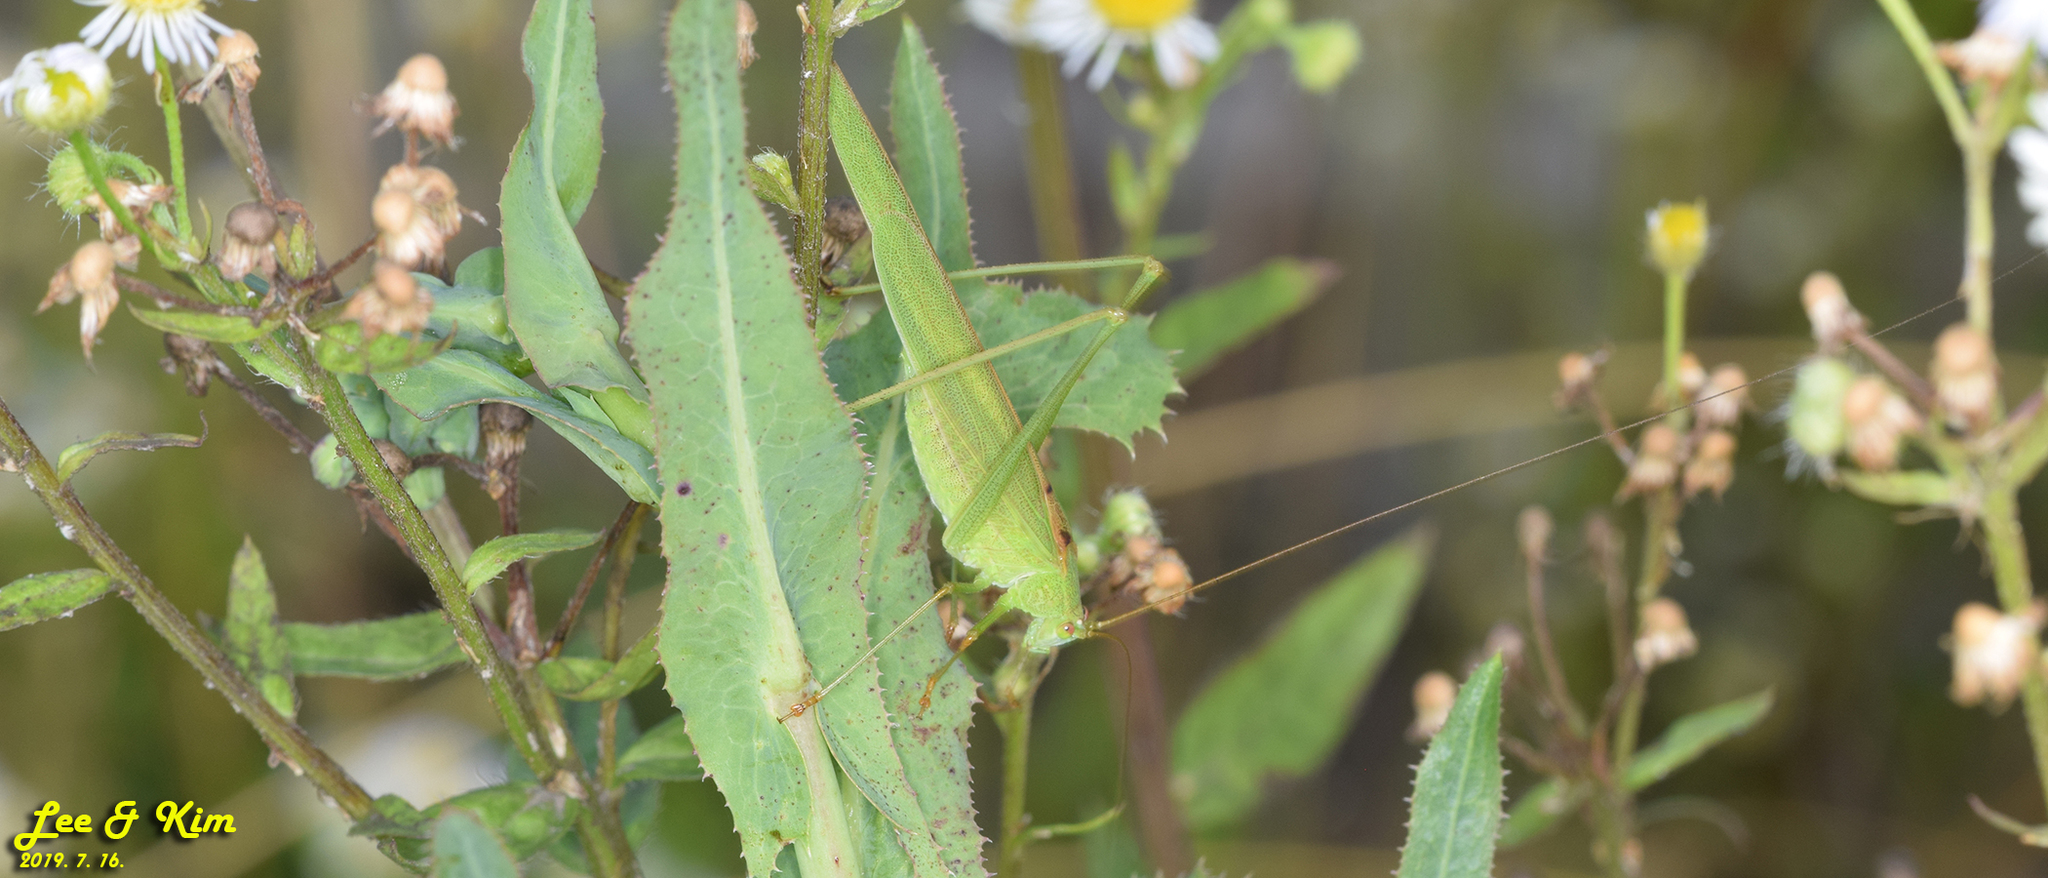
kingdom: Animalia
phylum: Arthropoda
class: Insecta
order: Orthoptera
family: Tettigoniidae
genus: Phaneroptera
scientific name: Phaneroptera falcata
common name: Sickle-bearing bush-cricket
